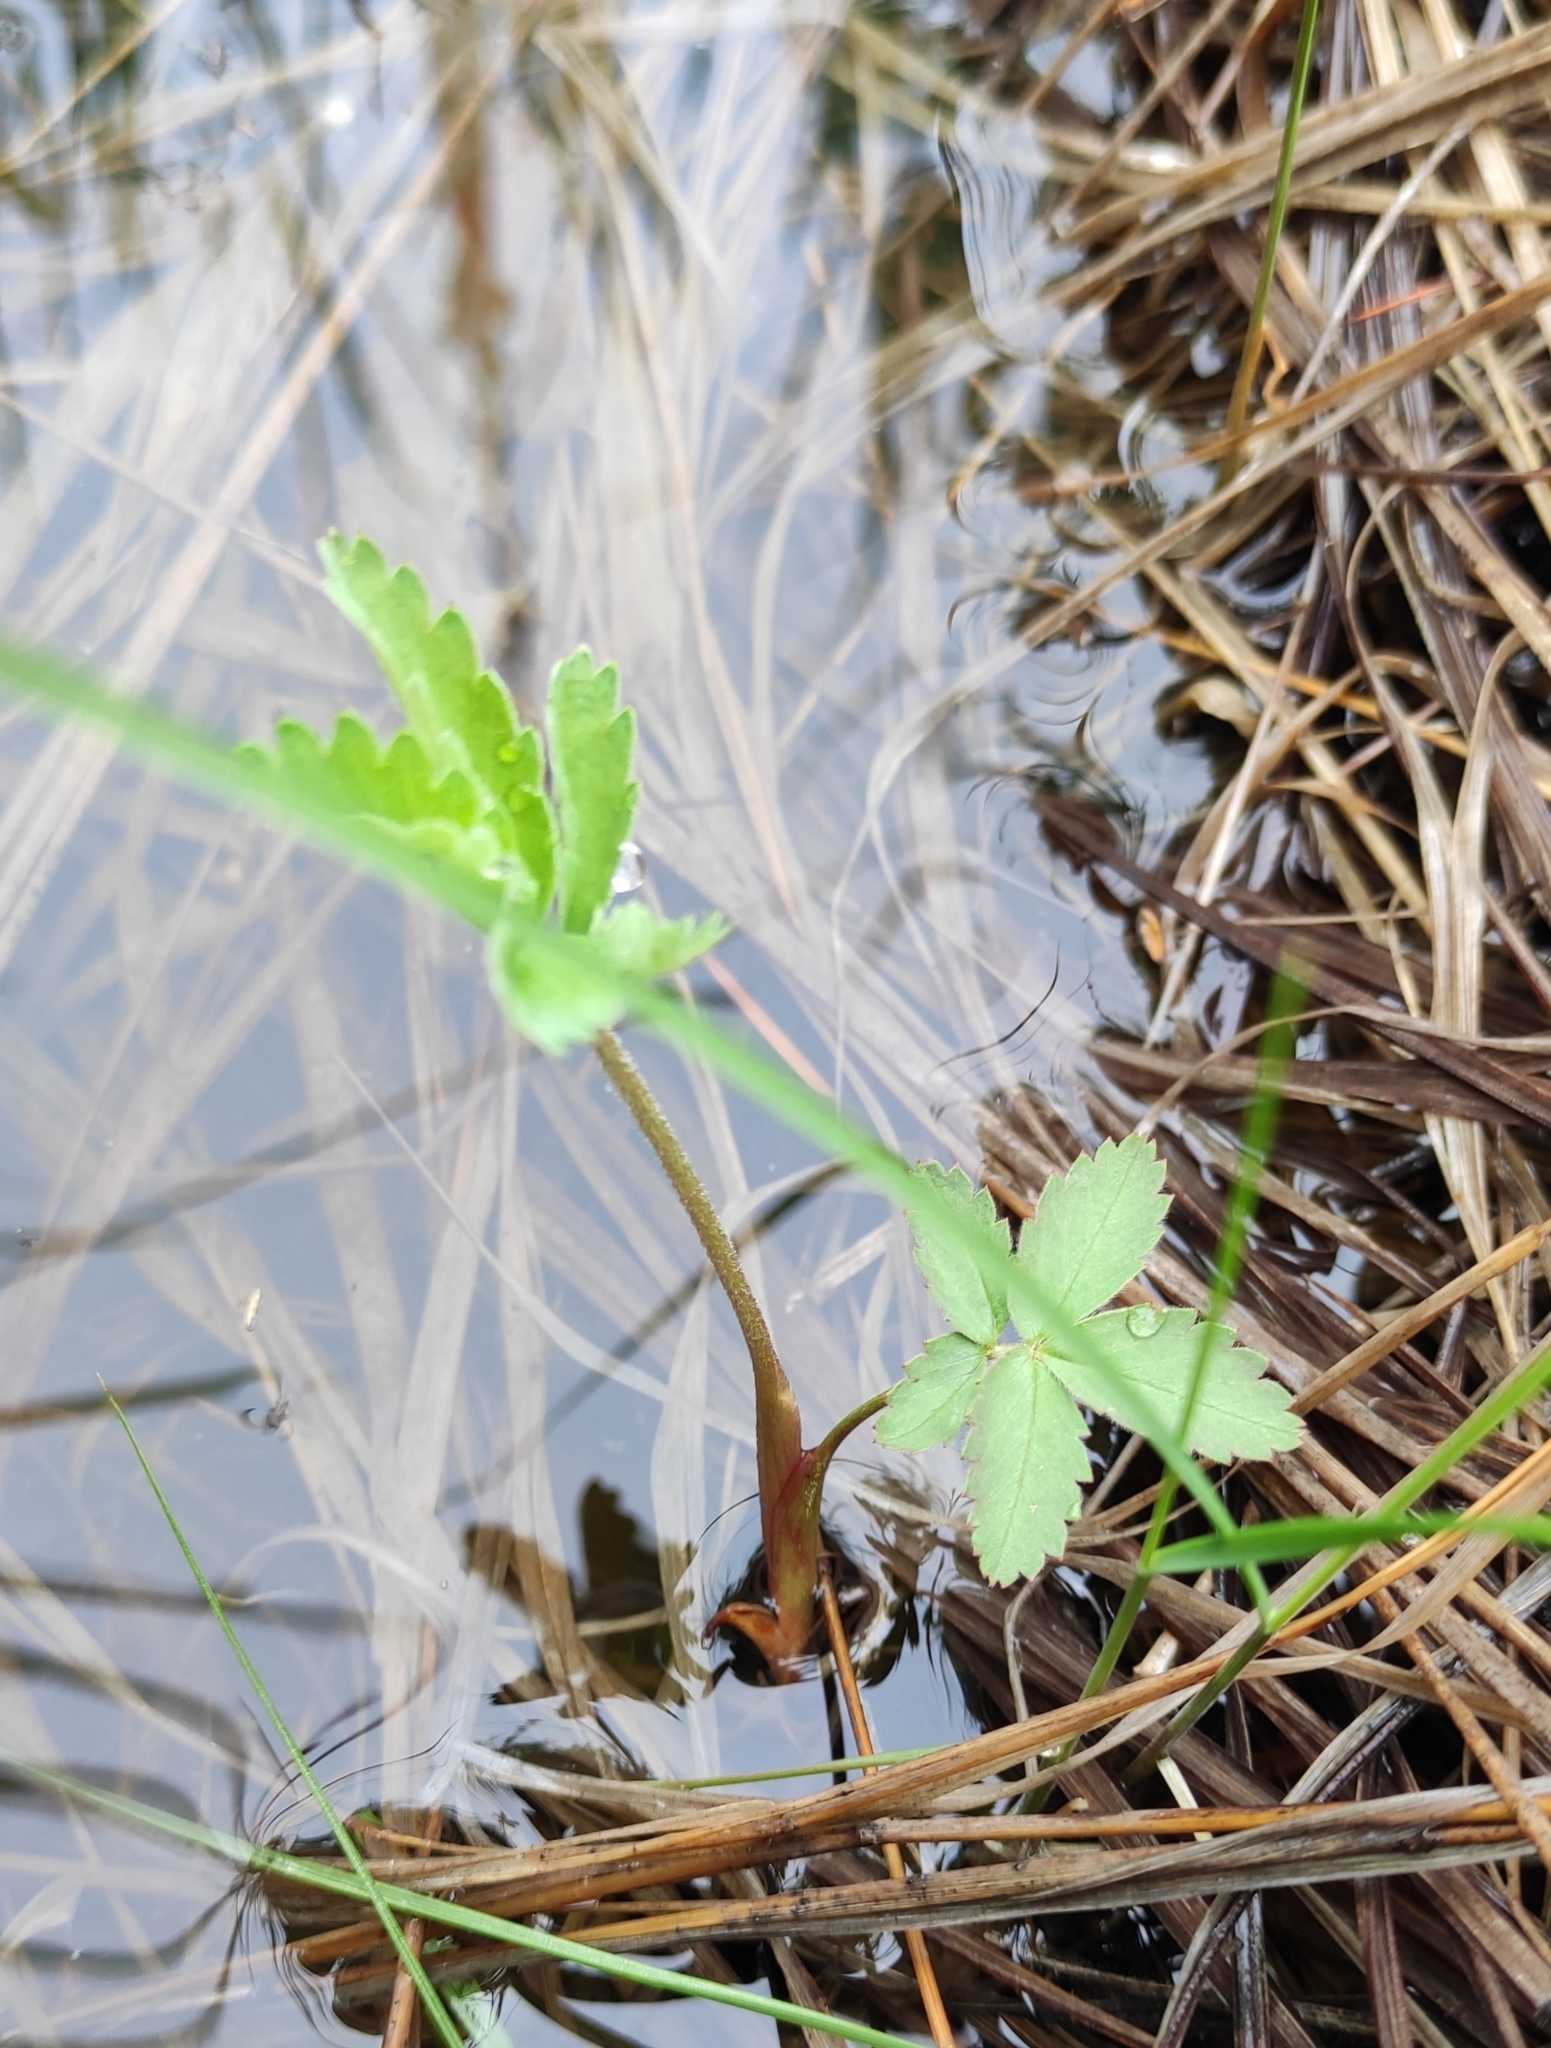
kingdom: Plantae
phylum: Tracheophyta
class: Magnoliopsida
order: Rosales
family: Rosaceae
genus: Comarum
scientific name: Comarum palustre
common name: Marsh cinquefoil
